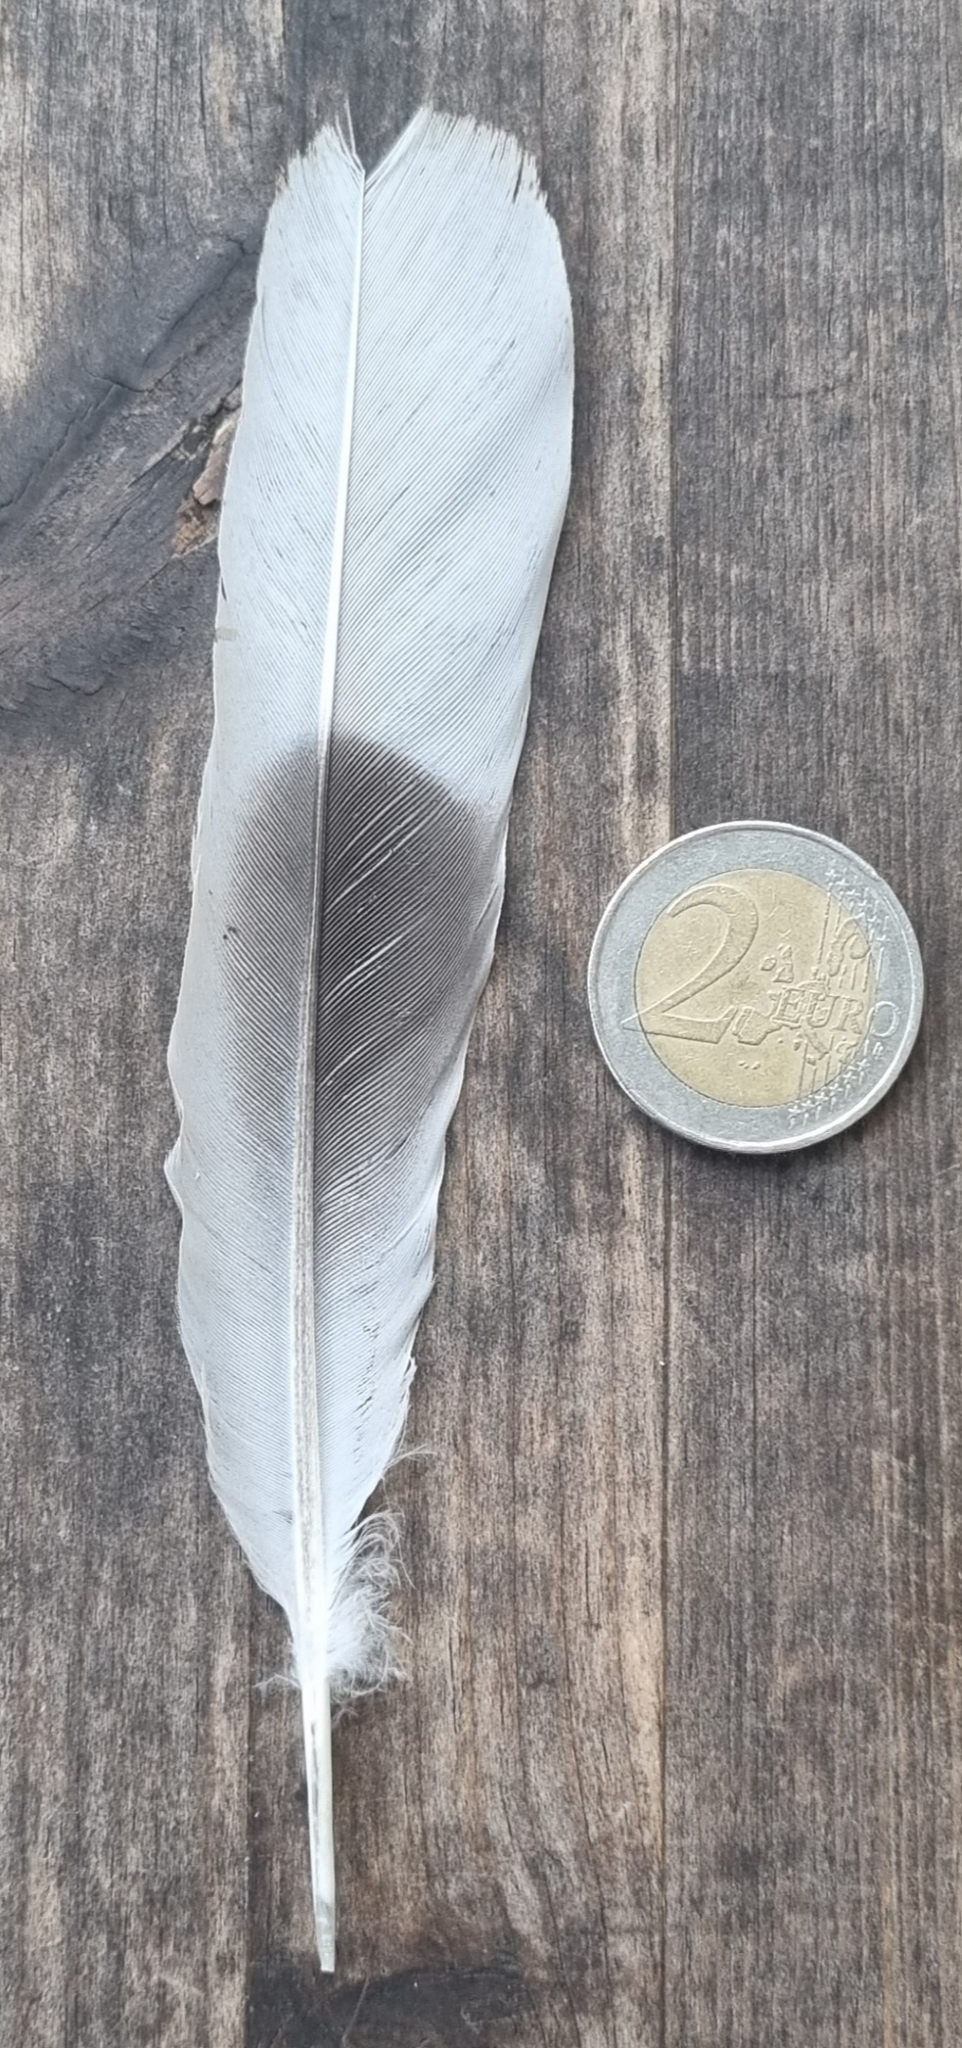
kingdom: Animalia
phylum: Chordata
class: Aves
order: Columbiformes
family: Columbidae
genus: Streptopelia
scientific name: Streptopelia decaocto
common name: Eurasian collared dove
